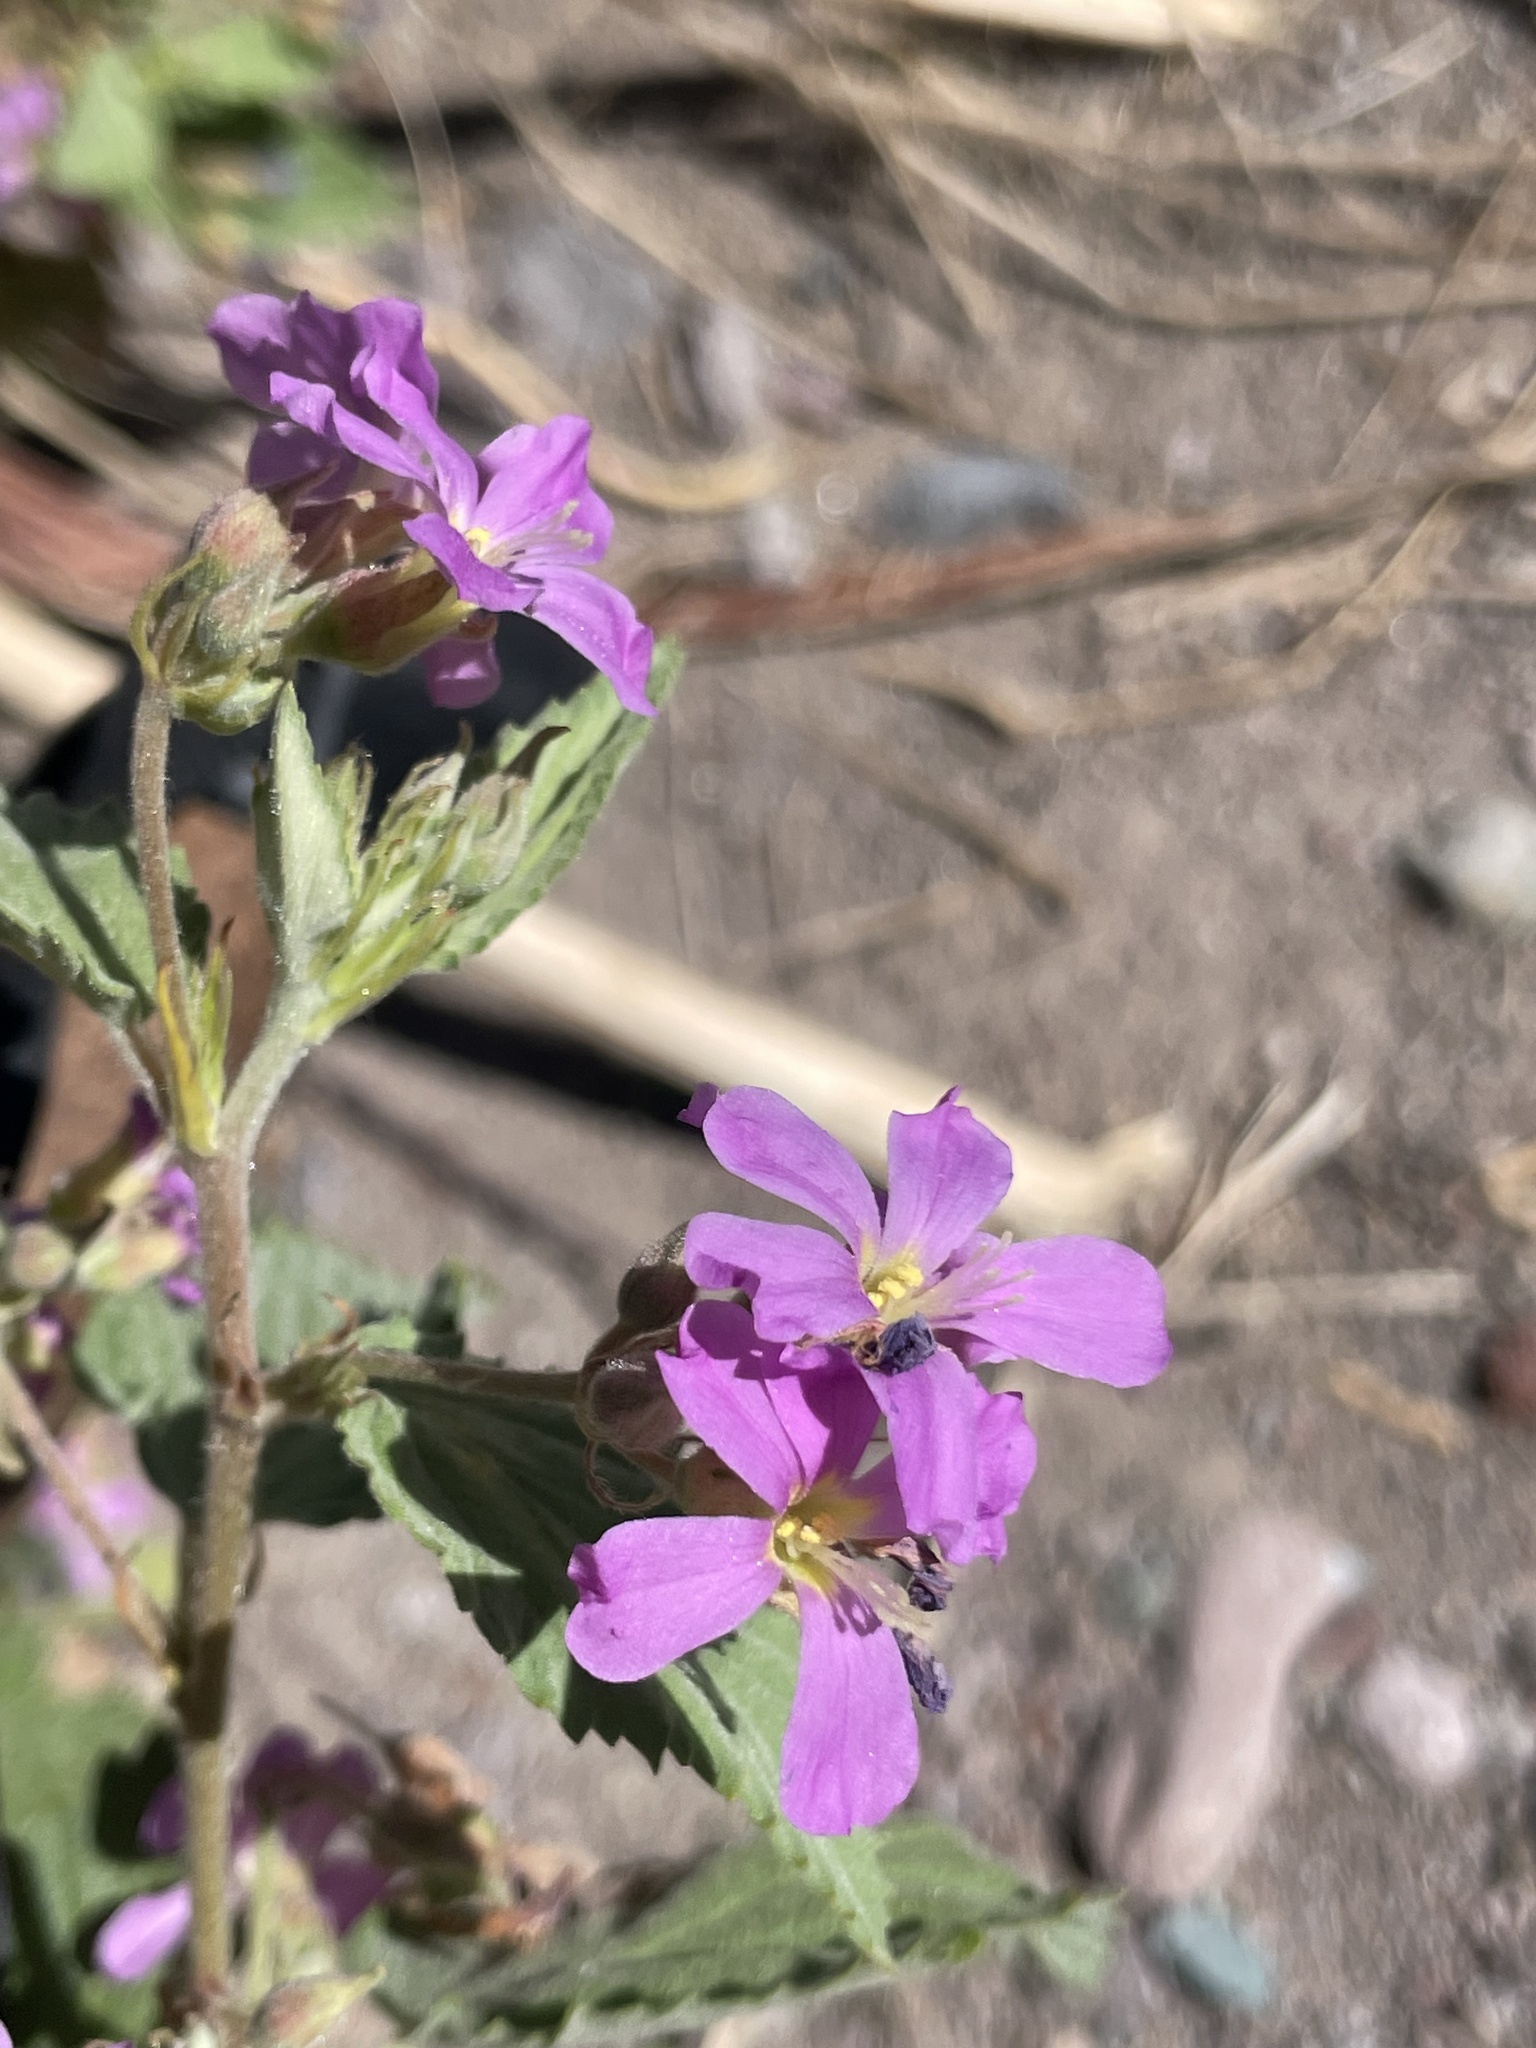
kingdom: Plantae
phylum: Tracheophyta
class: Magnoliopsida
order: Malvales
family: Malvaceae
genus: Melochia
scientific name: Melochia tomentosa
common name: Black torch
